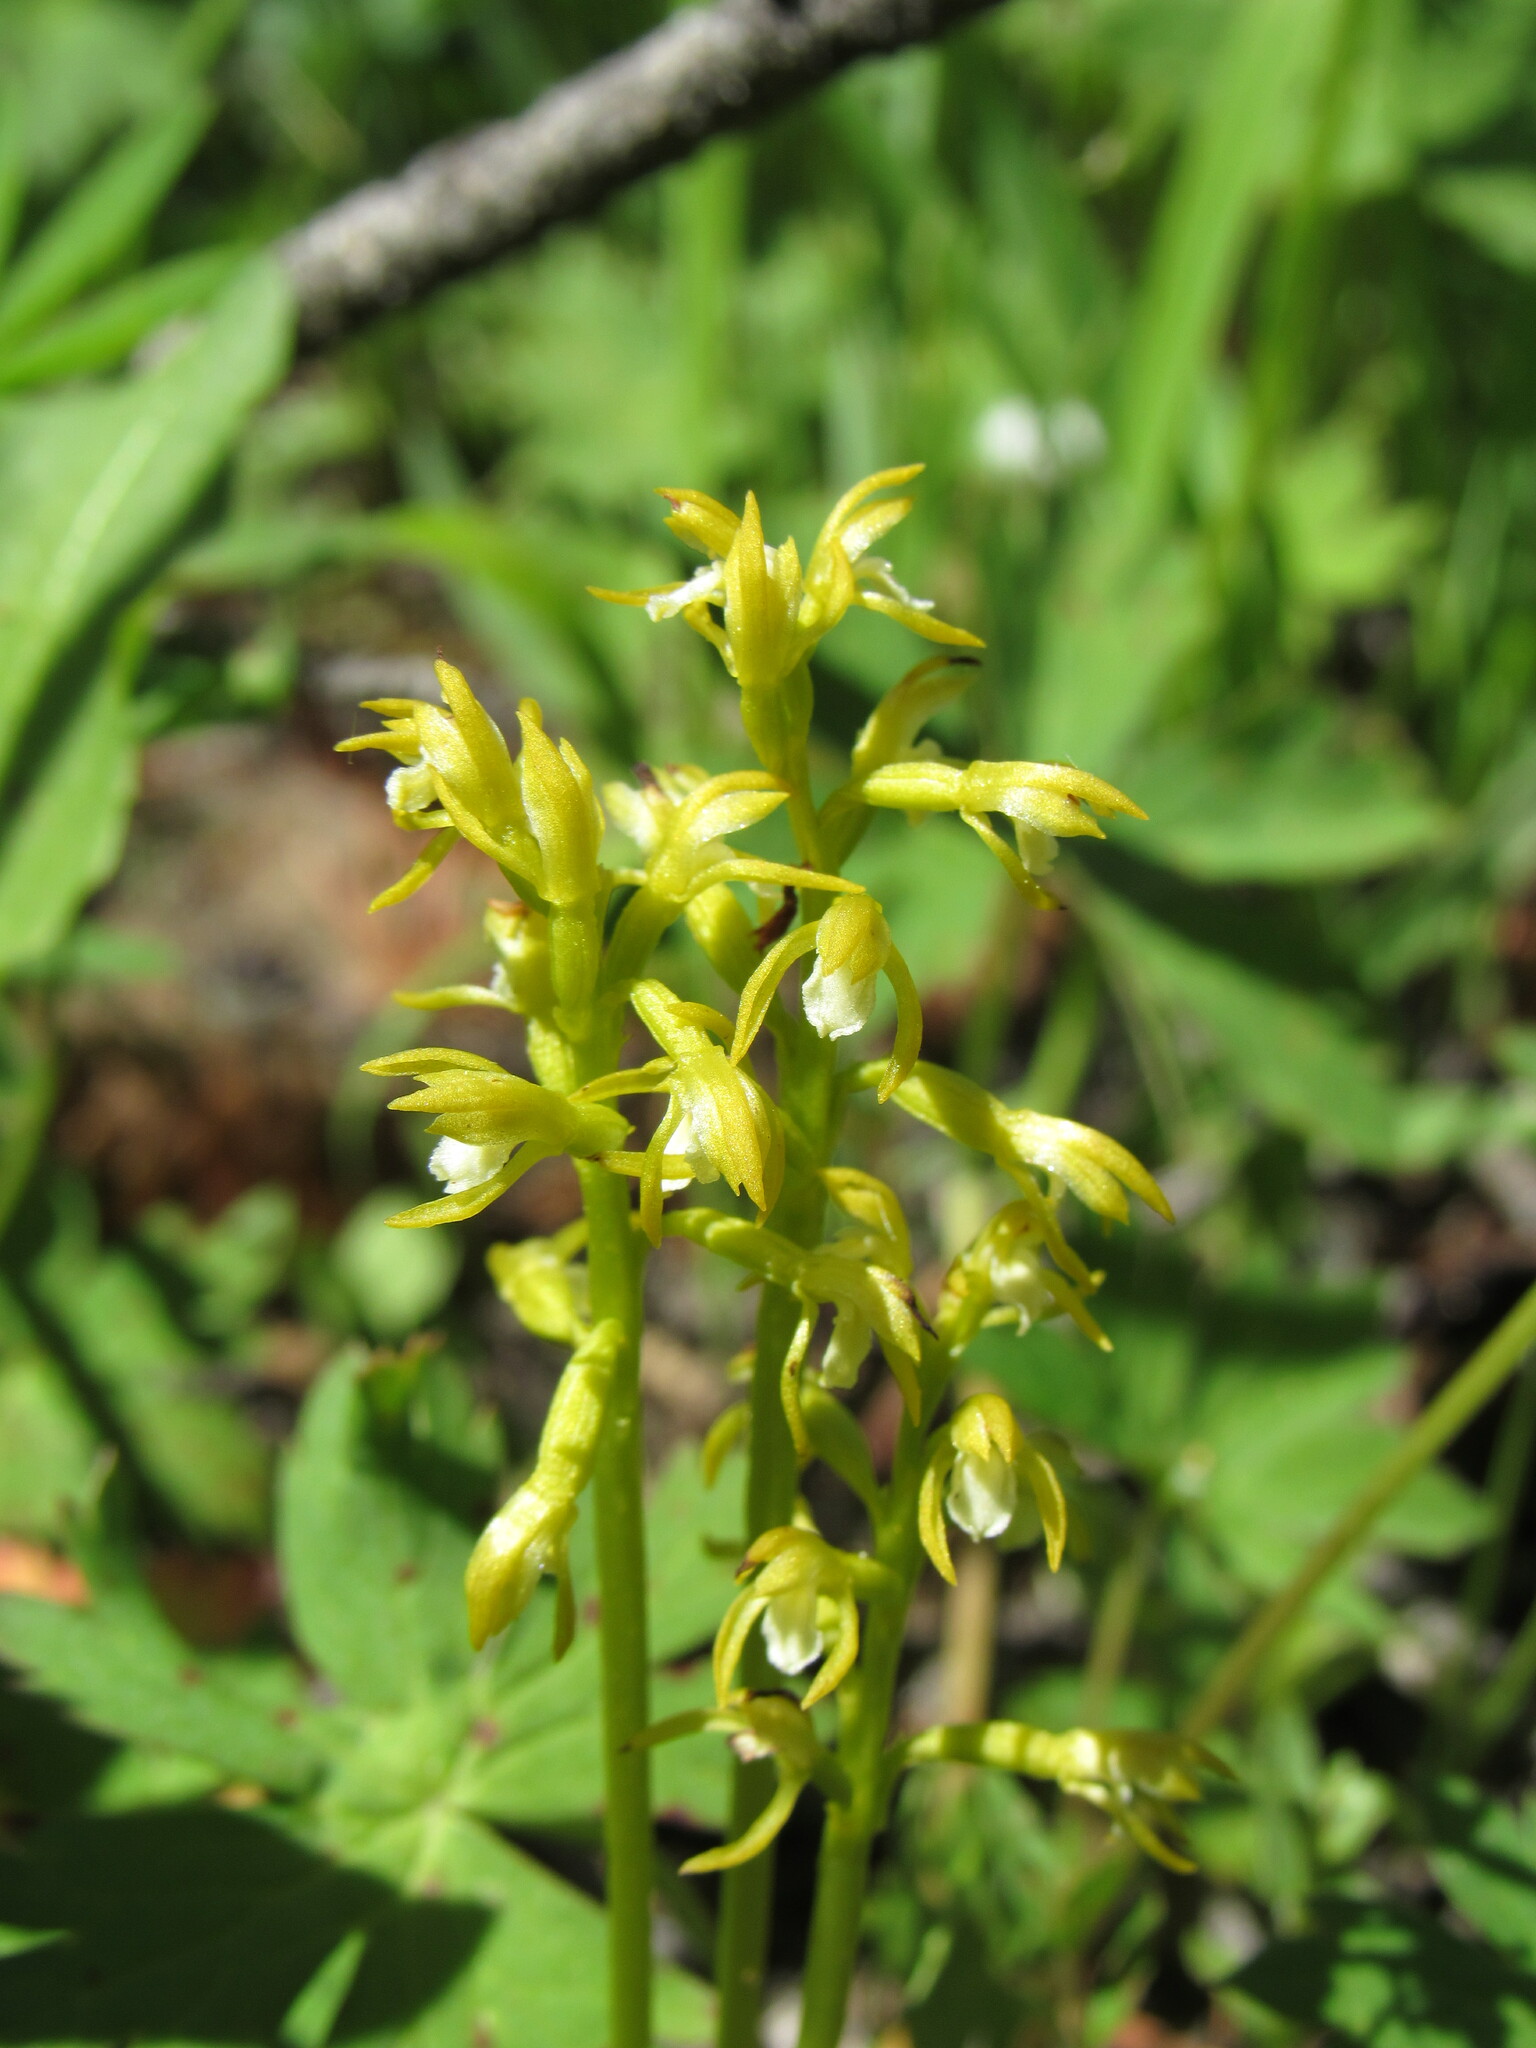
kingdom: Plantae
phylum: Tracheophyta
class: Liliopsida
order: Asparagales
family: Orchidaceae
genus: Corallorhiza
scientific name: Corallorhiza trifida
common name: Yellow coralroot
